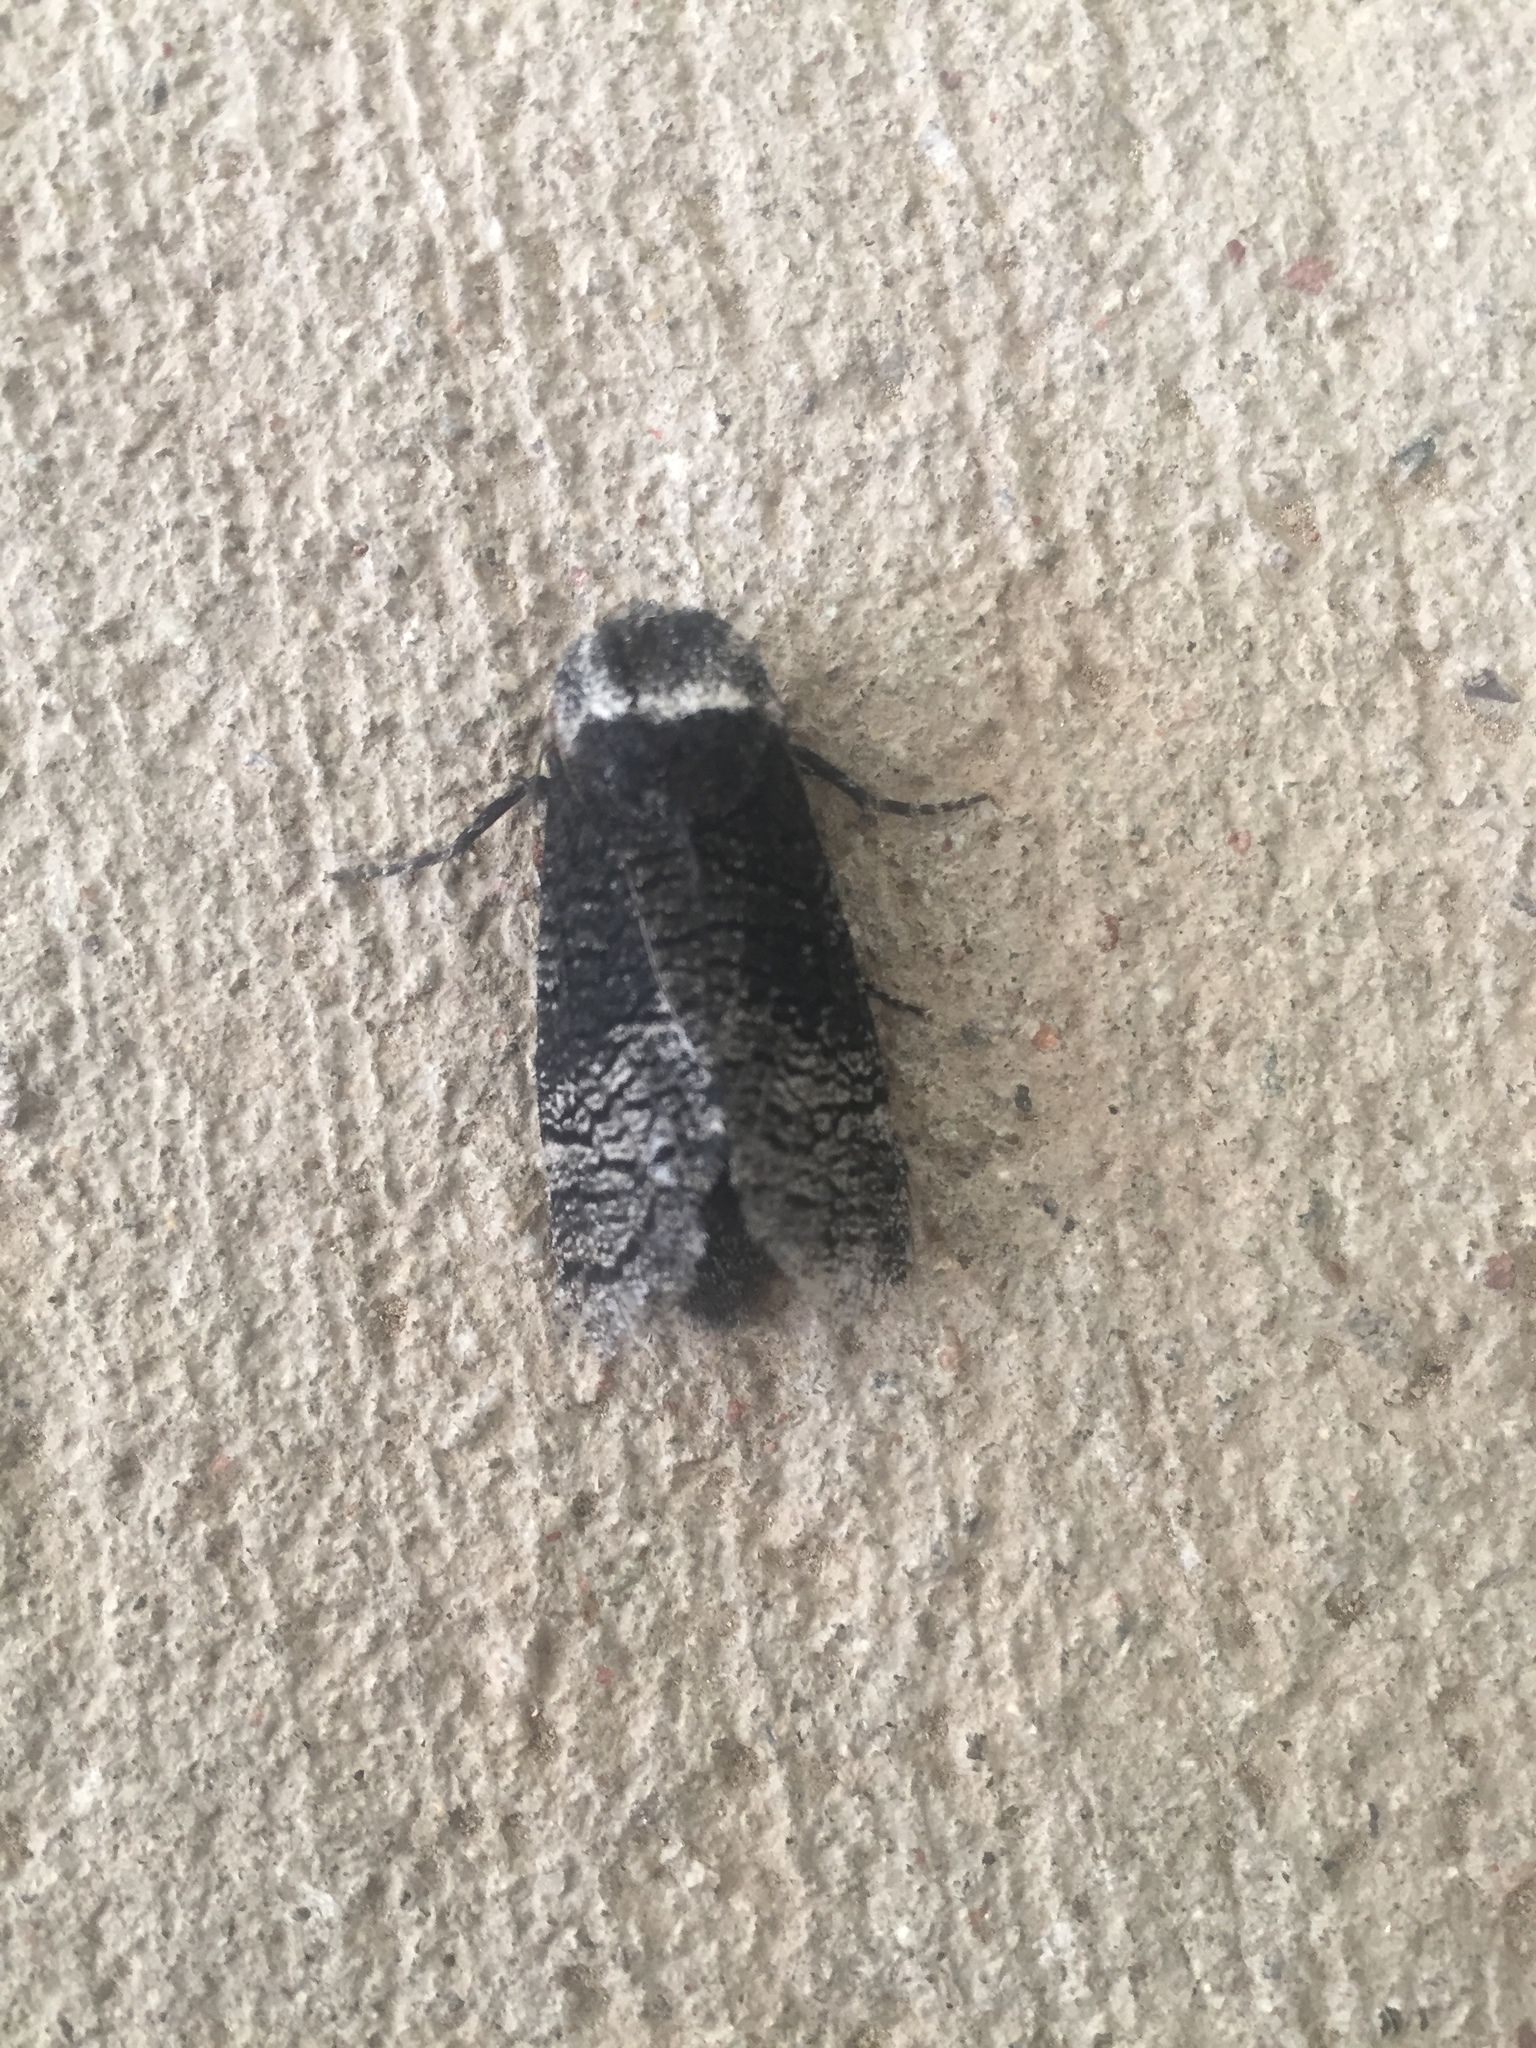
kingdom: Animalia
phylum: Arthropoda
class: Insecta
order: Lepidoptera
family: Cossidae
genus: Acossus
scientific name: Acossus centerensis
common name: Poplar carpenterworm moth
